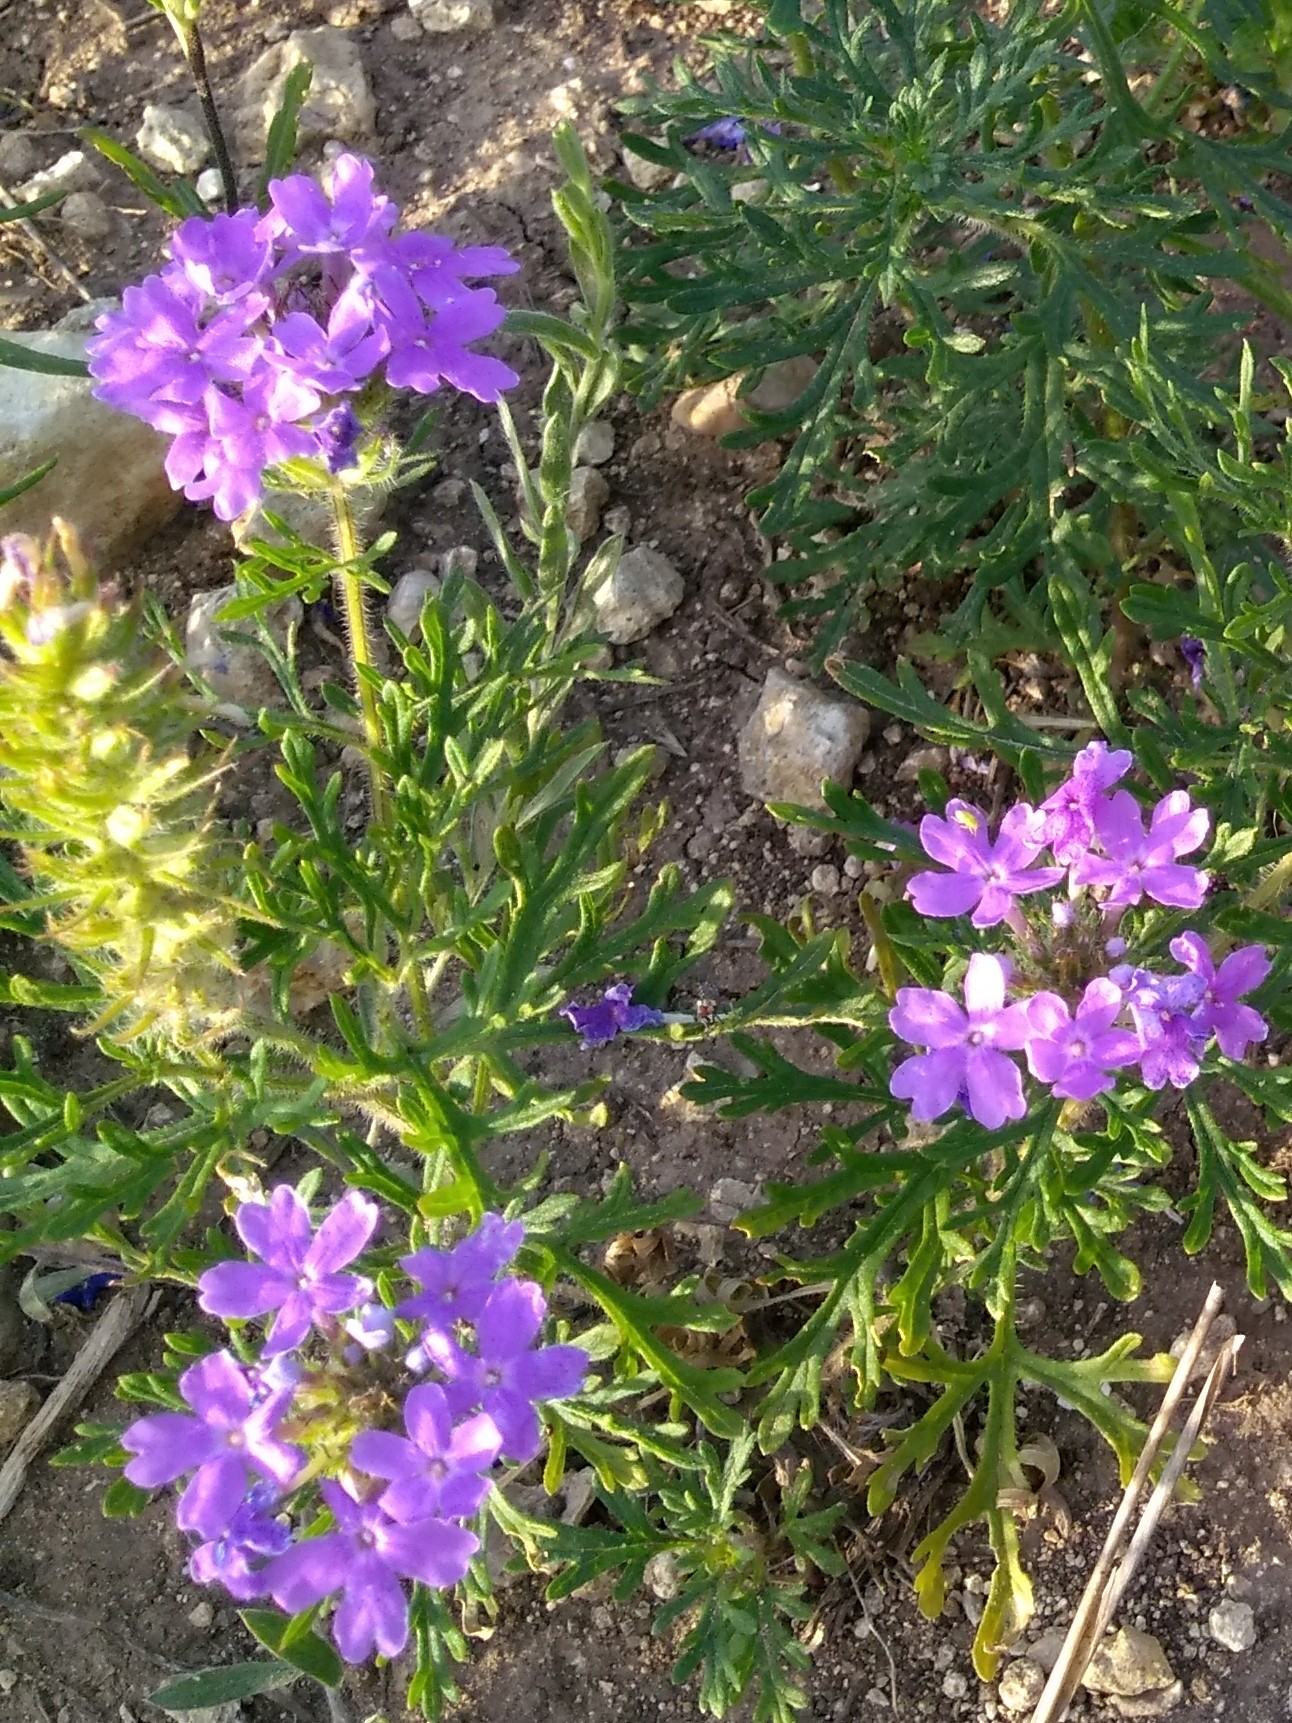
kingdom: Plantae
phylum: Tracheophyta
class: Magnoliopsida
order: Lamiales
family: Verbenaceae
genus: Verbena
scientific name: Verbena bipinnatifida
